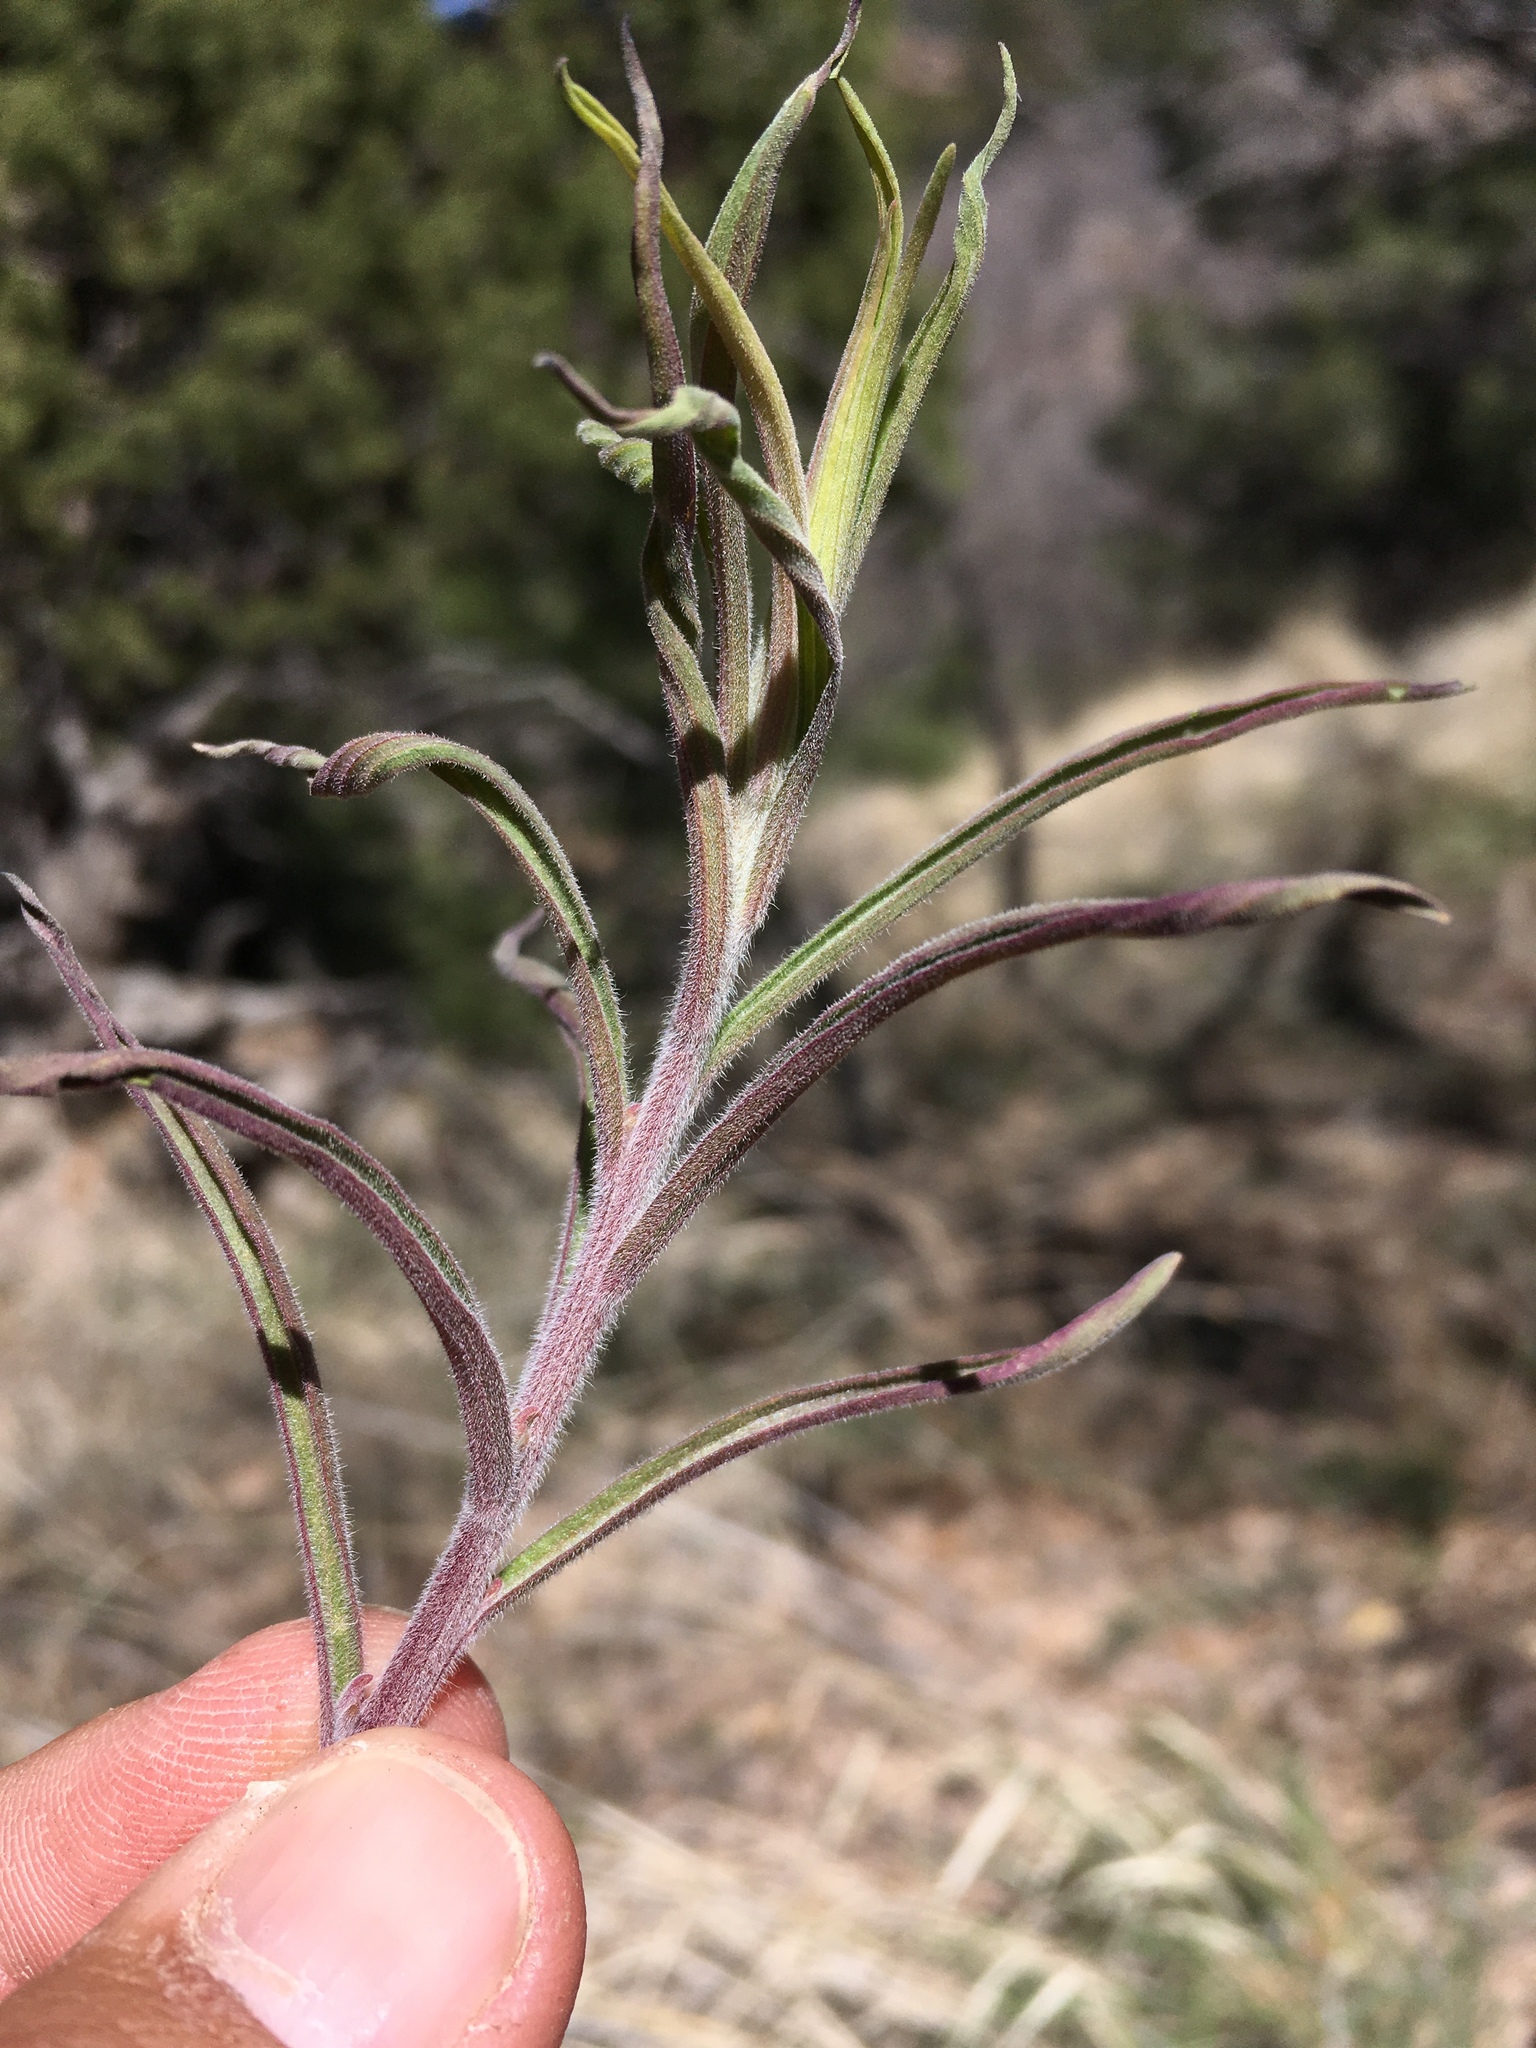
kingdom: Plantae
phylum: Tracheophyta
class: Magnoliopsida
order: Lamiales
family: Orobanchaceae
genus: Castilleja
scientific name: Castilleja organorum
